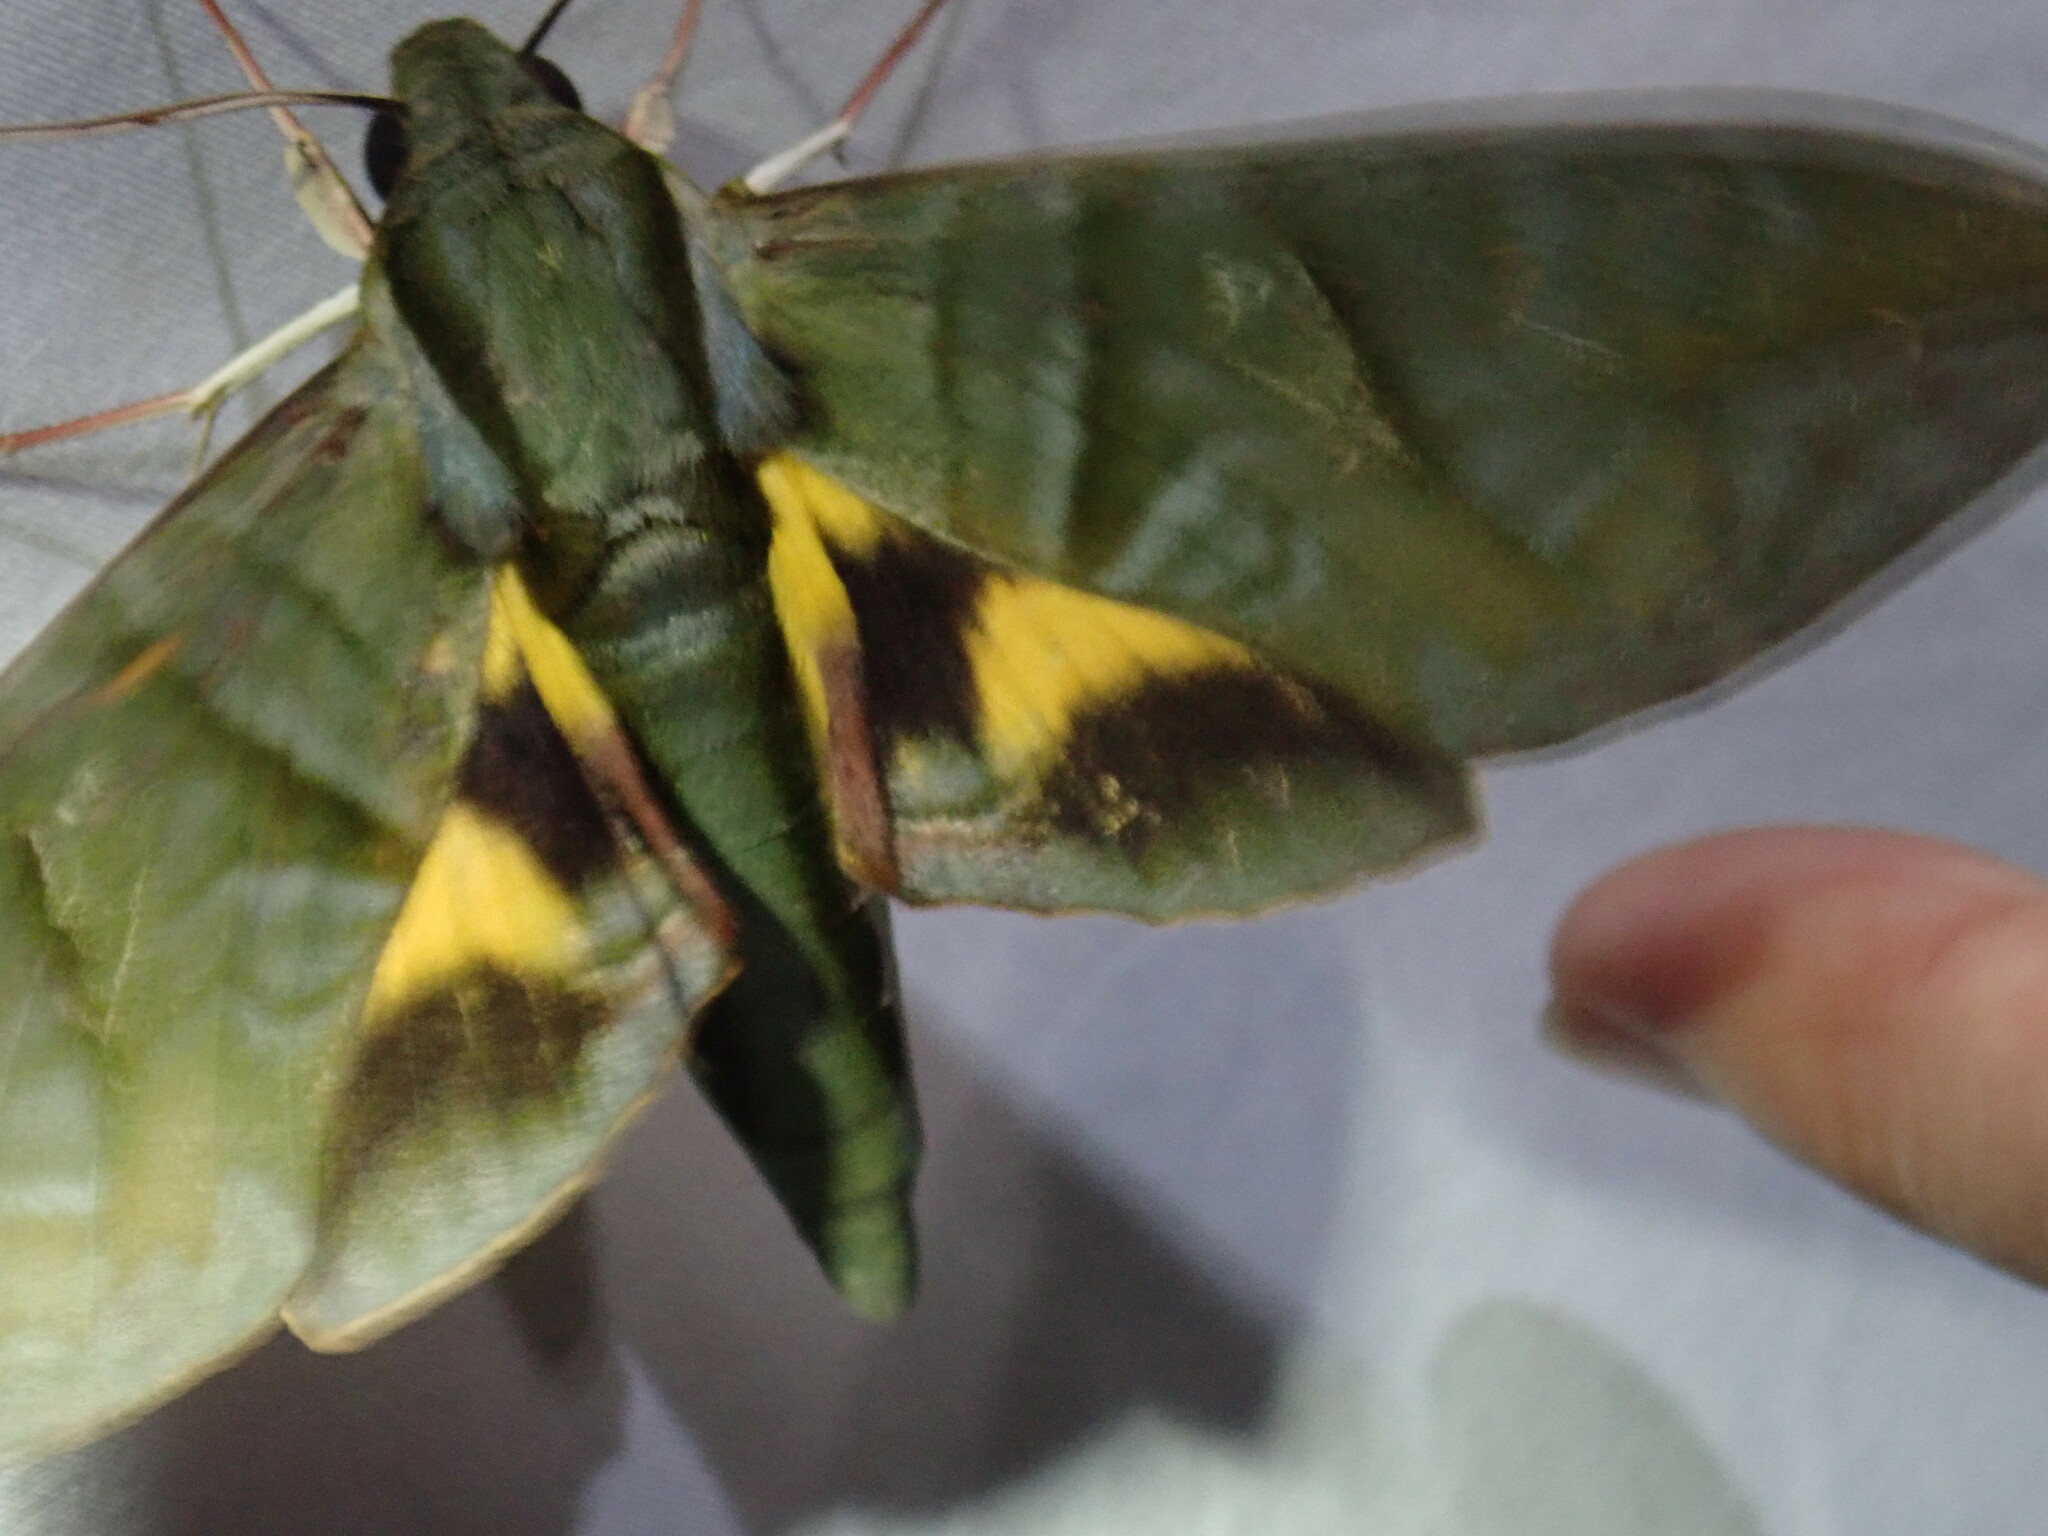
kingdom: Animalia
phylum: Arthropoda
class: Insecta
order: Lepidoptera
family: Sphingidae
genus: Eumorpha
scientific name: Eumorpha phorbas
